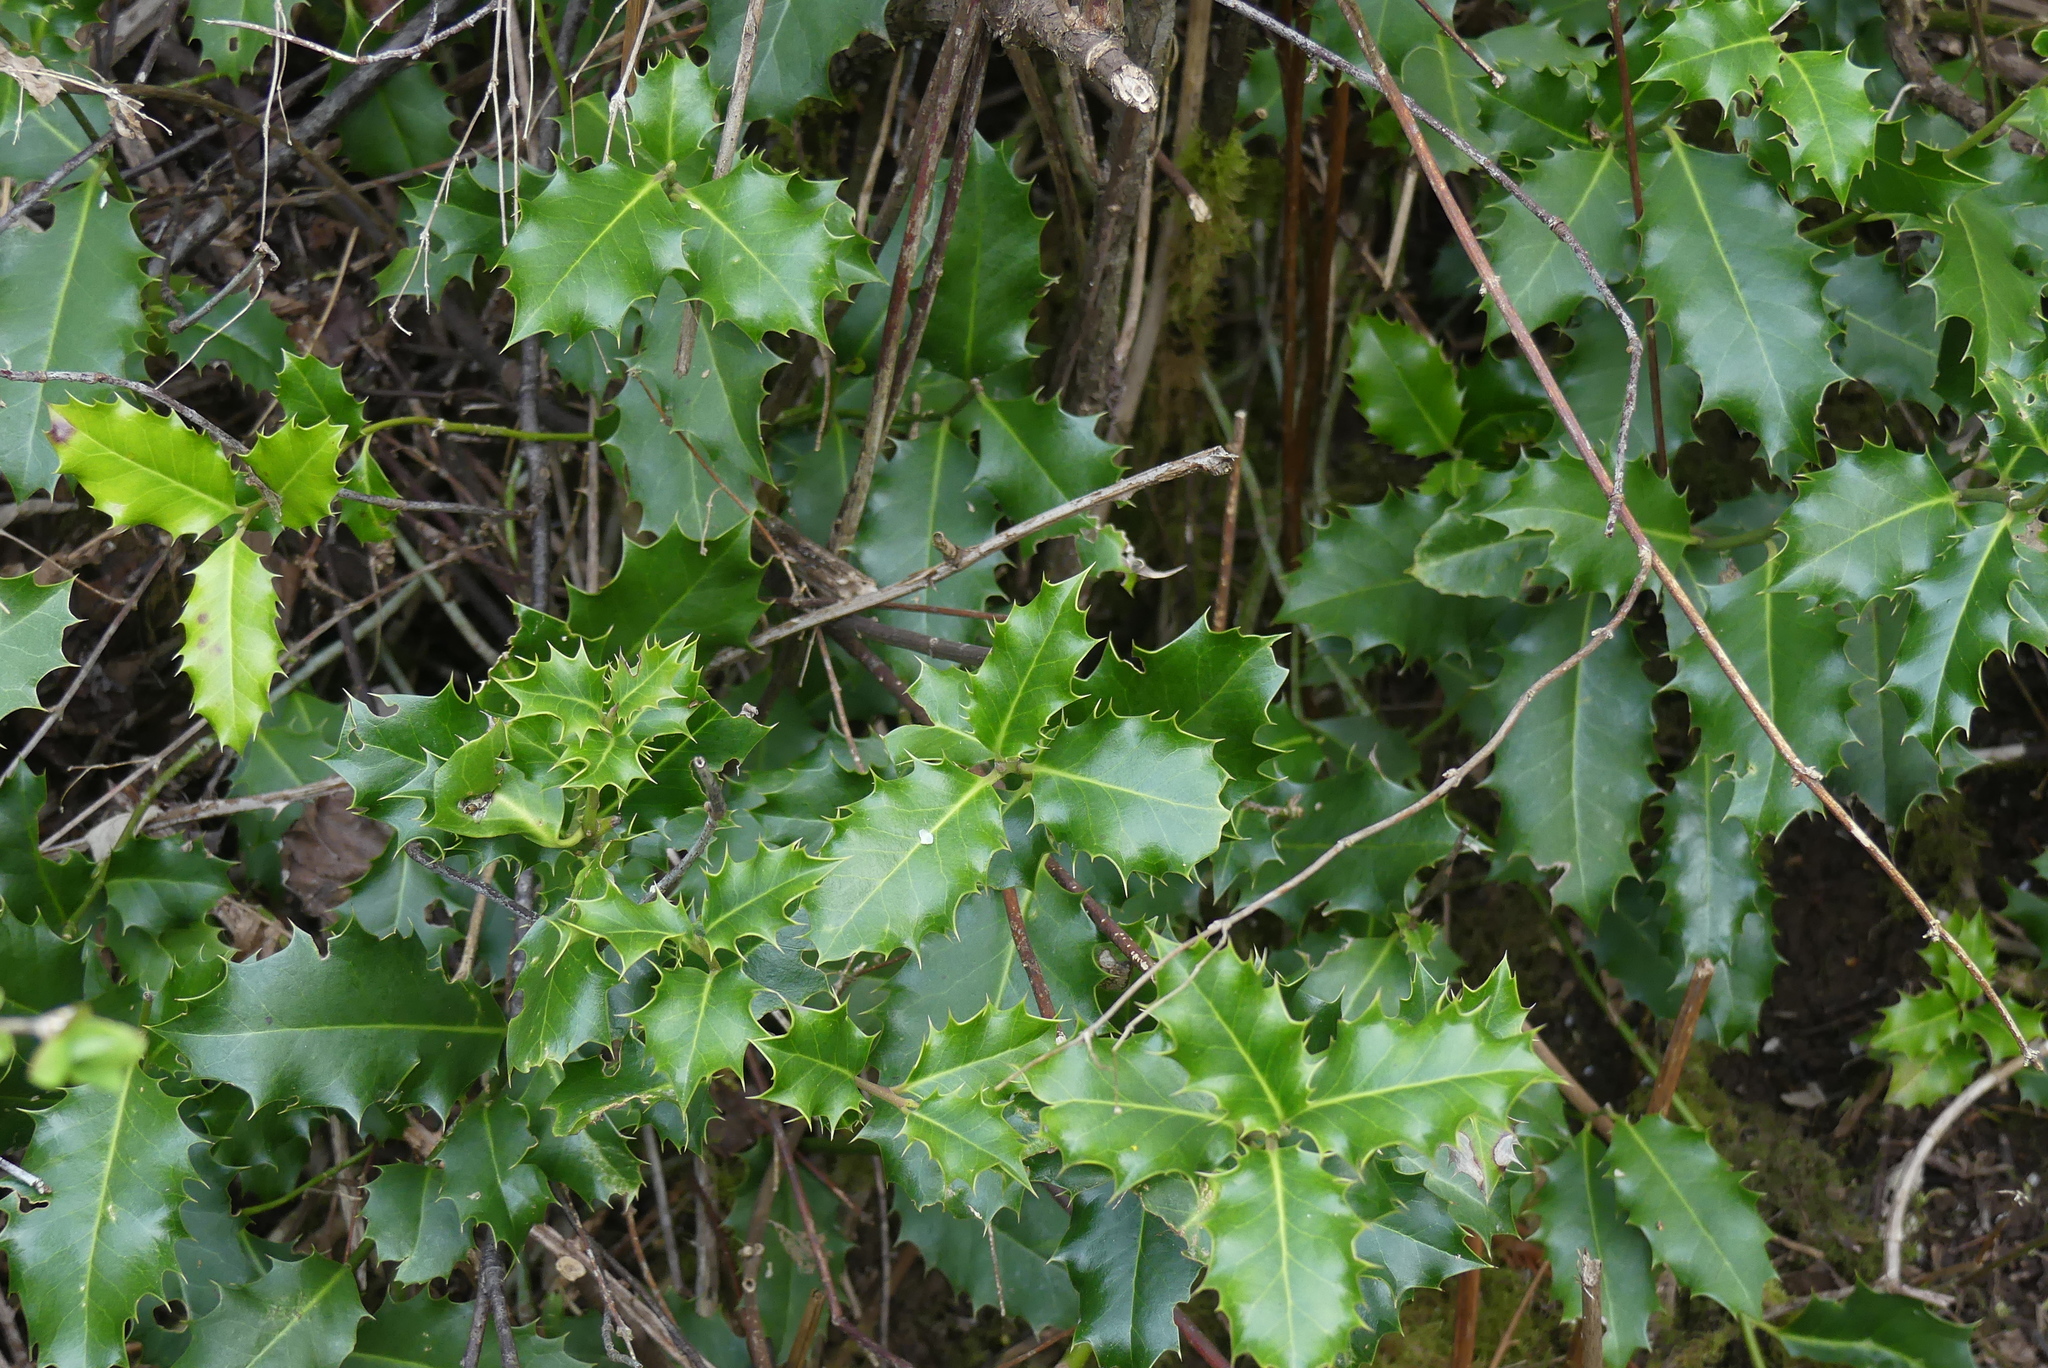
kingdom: Plantae
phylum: Tracheophyta
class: Magnoliopsida
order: Aquifoliales
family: Aquifoliaceae
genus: Ilex
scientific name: Ilex aquifolium
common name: English holly
